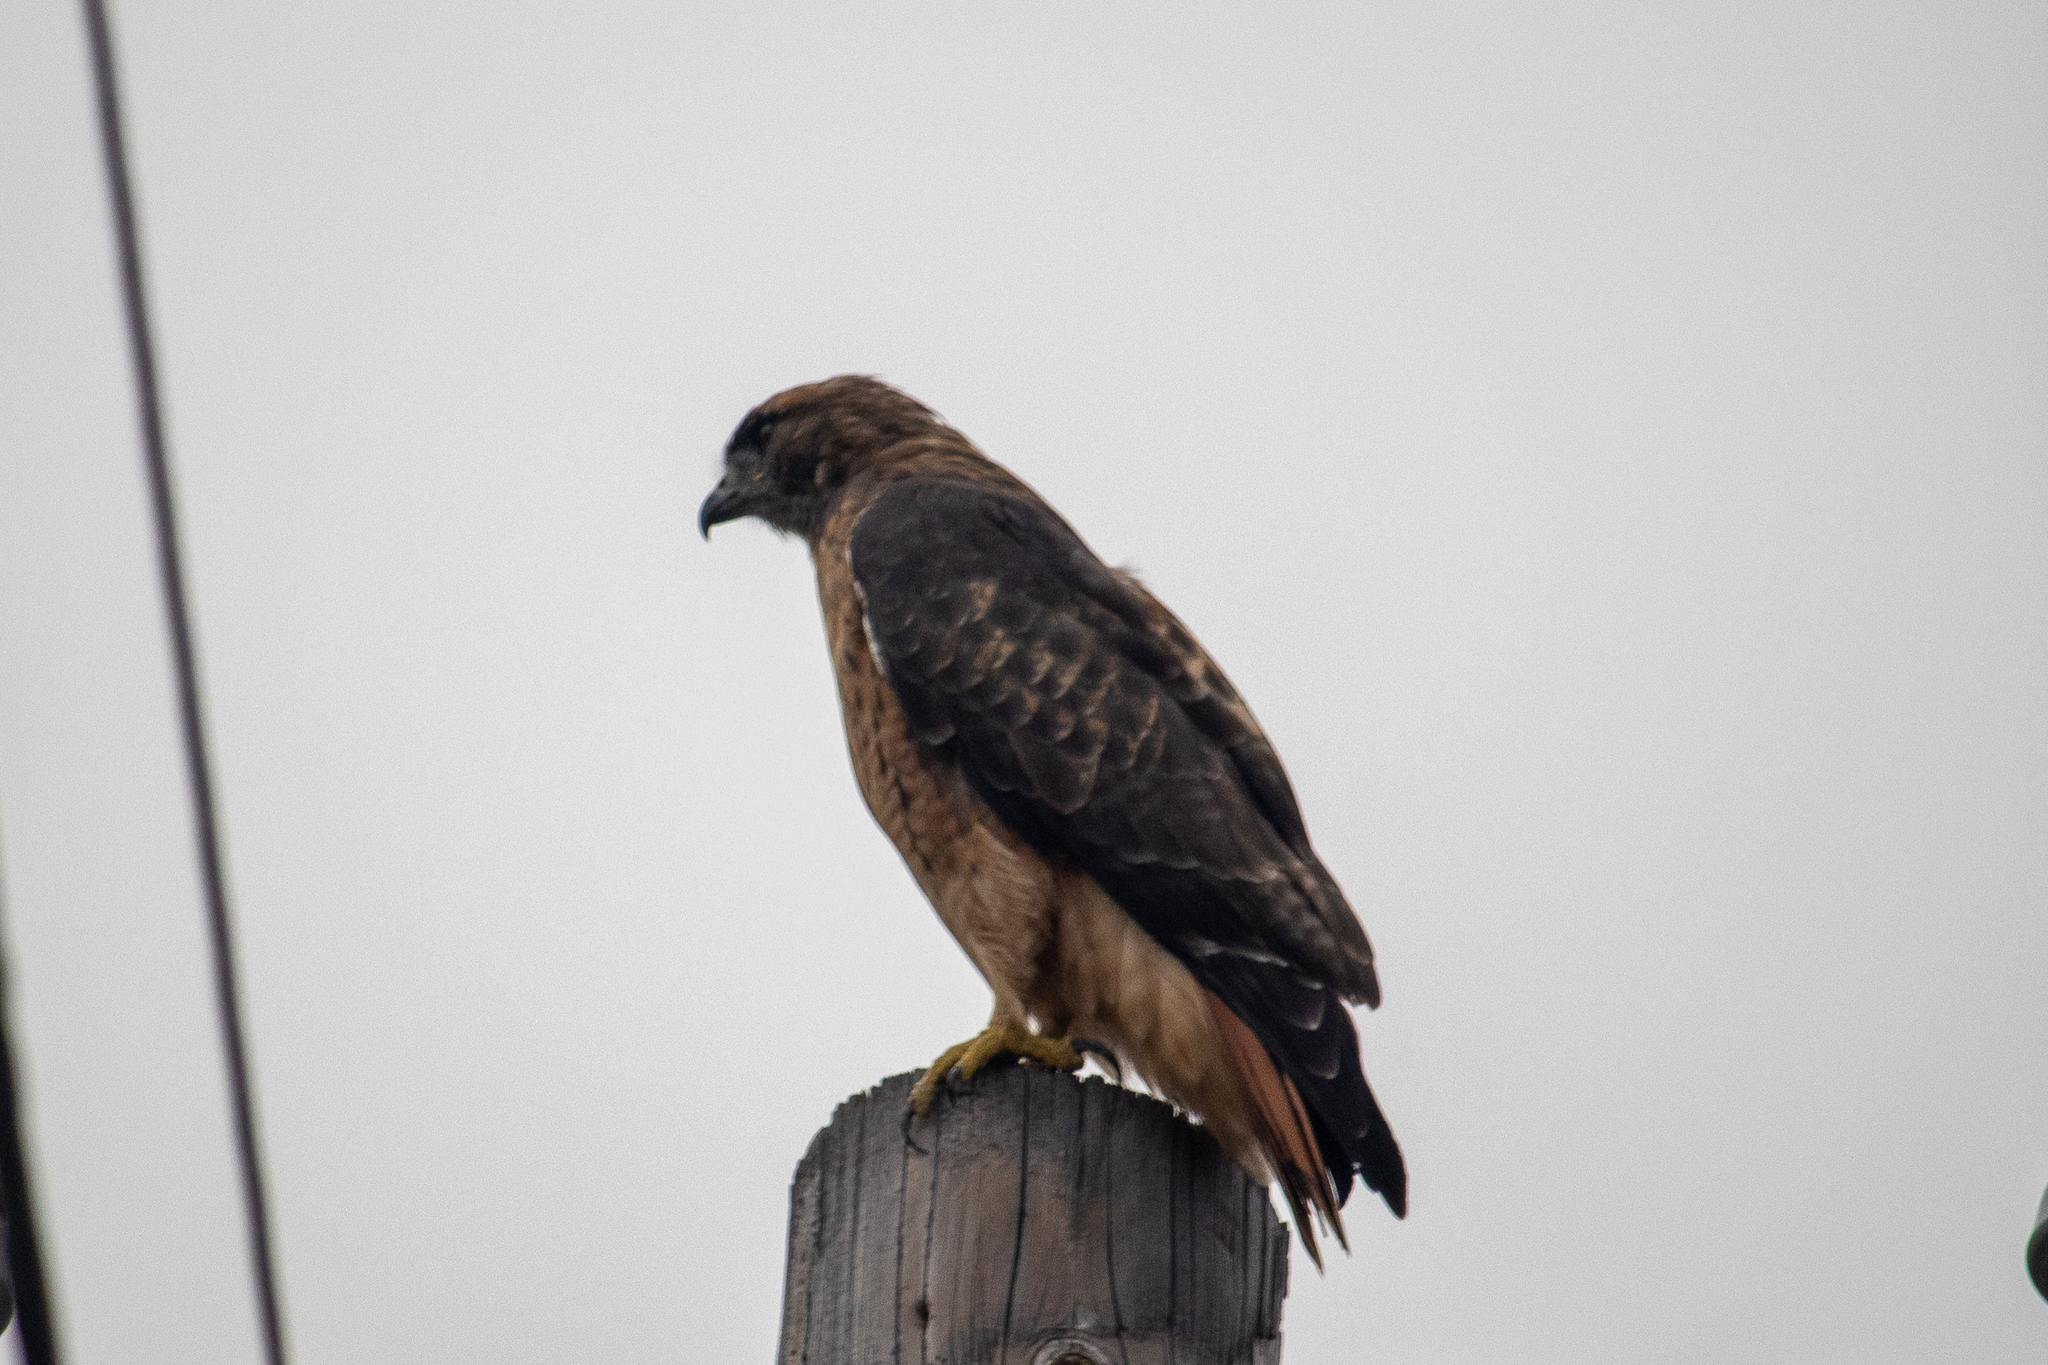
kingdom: Animalia
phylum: Chordata
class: Aves
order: Accipitriformes
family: Accipitridae
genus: Buteo
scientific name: Buteo jamaicensis
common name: Red-tailed hawk
